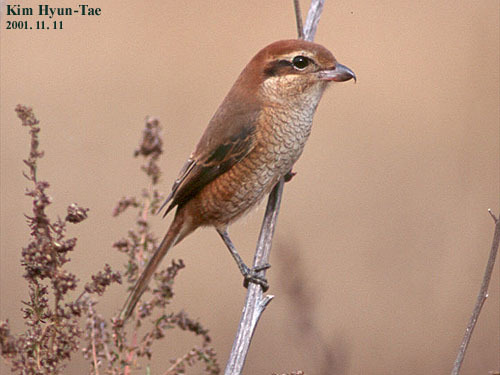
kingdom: Animalia
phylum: Chordata
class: Aves
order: Passeriformes
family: Laniidae
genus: Lanius
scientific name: Lanius bucephalus
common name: Bull-headed shrike
